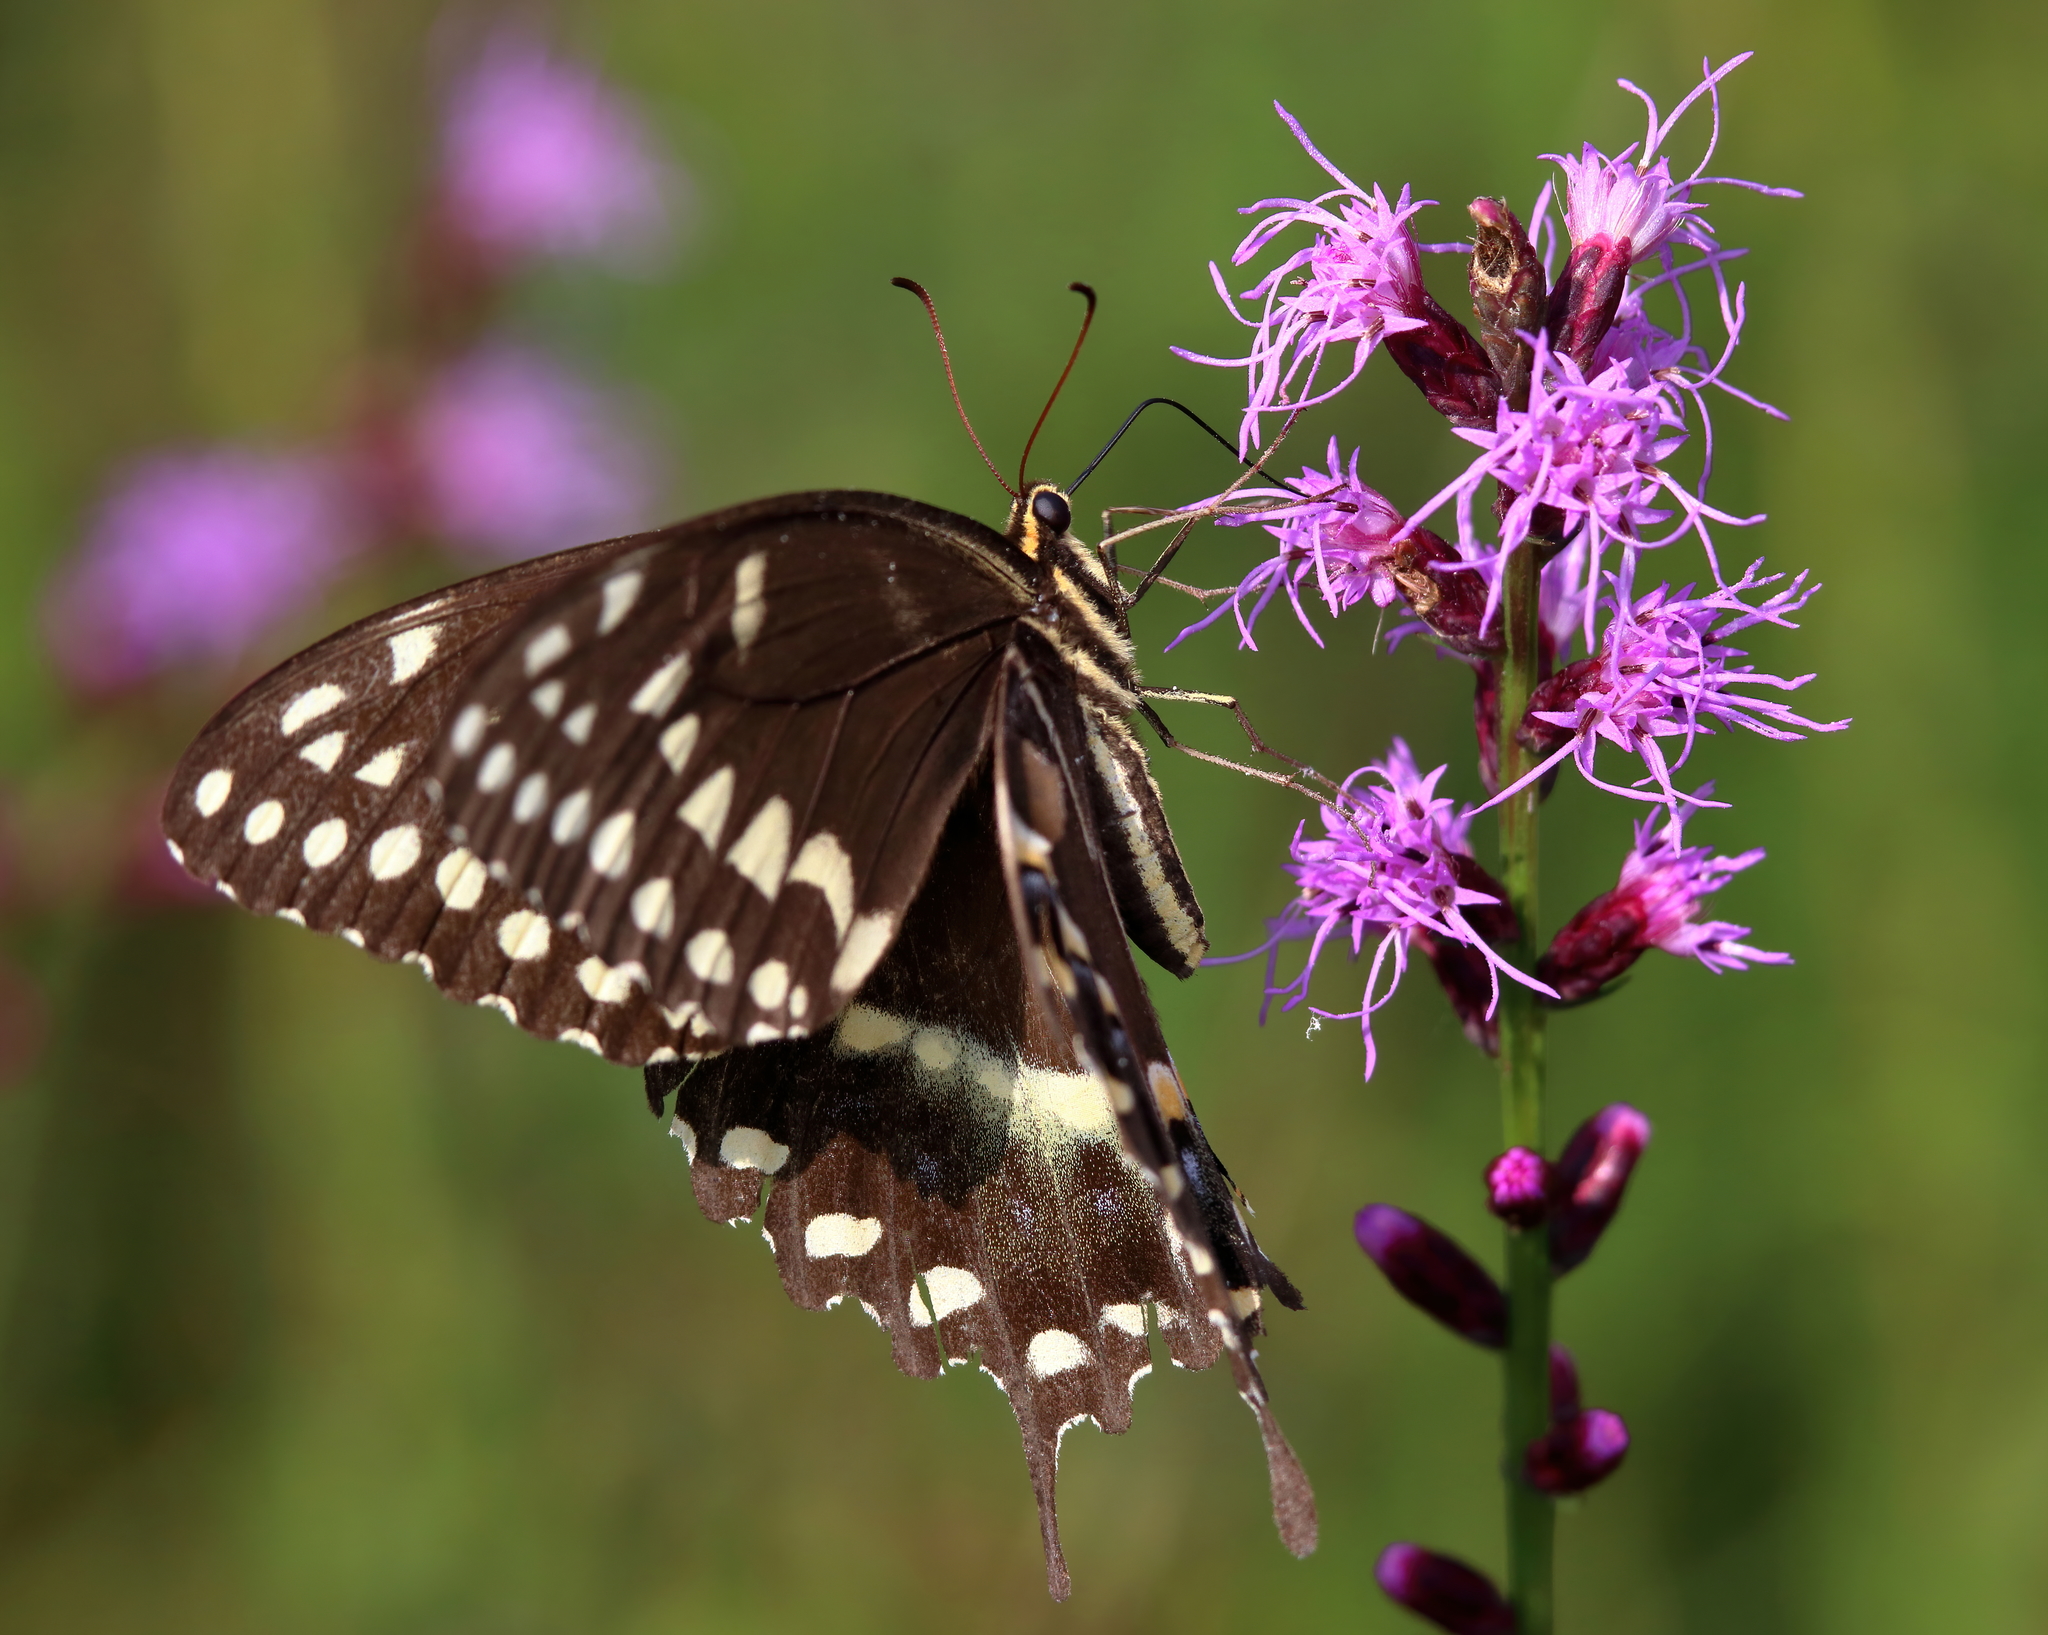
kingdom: Animalia
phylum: Arthropoda
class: Insecta
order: Lepidoptera
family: Papilionidae
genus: Papilio
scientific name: Papilio palamedes
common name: Palamedes swallowtail
